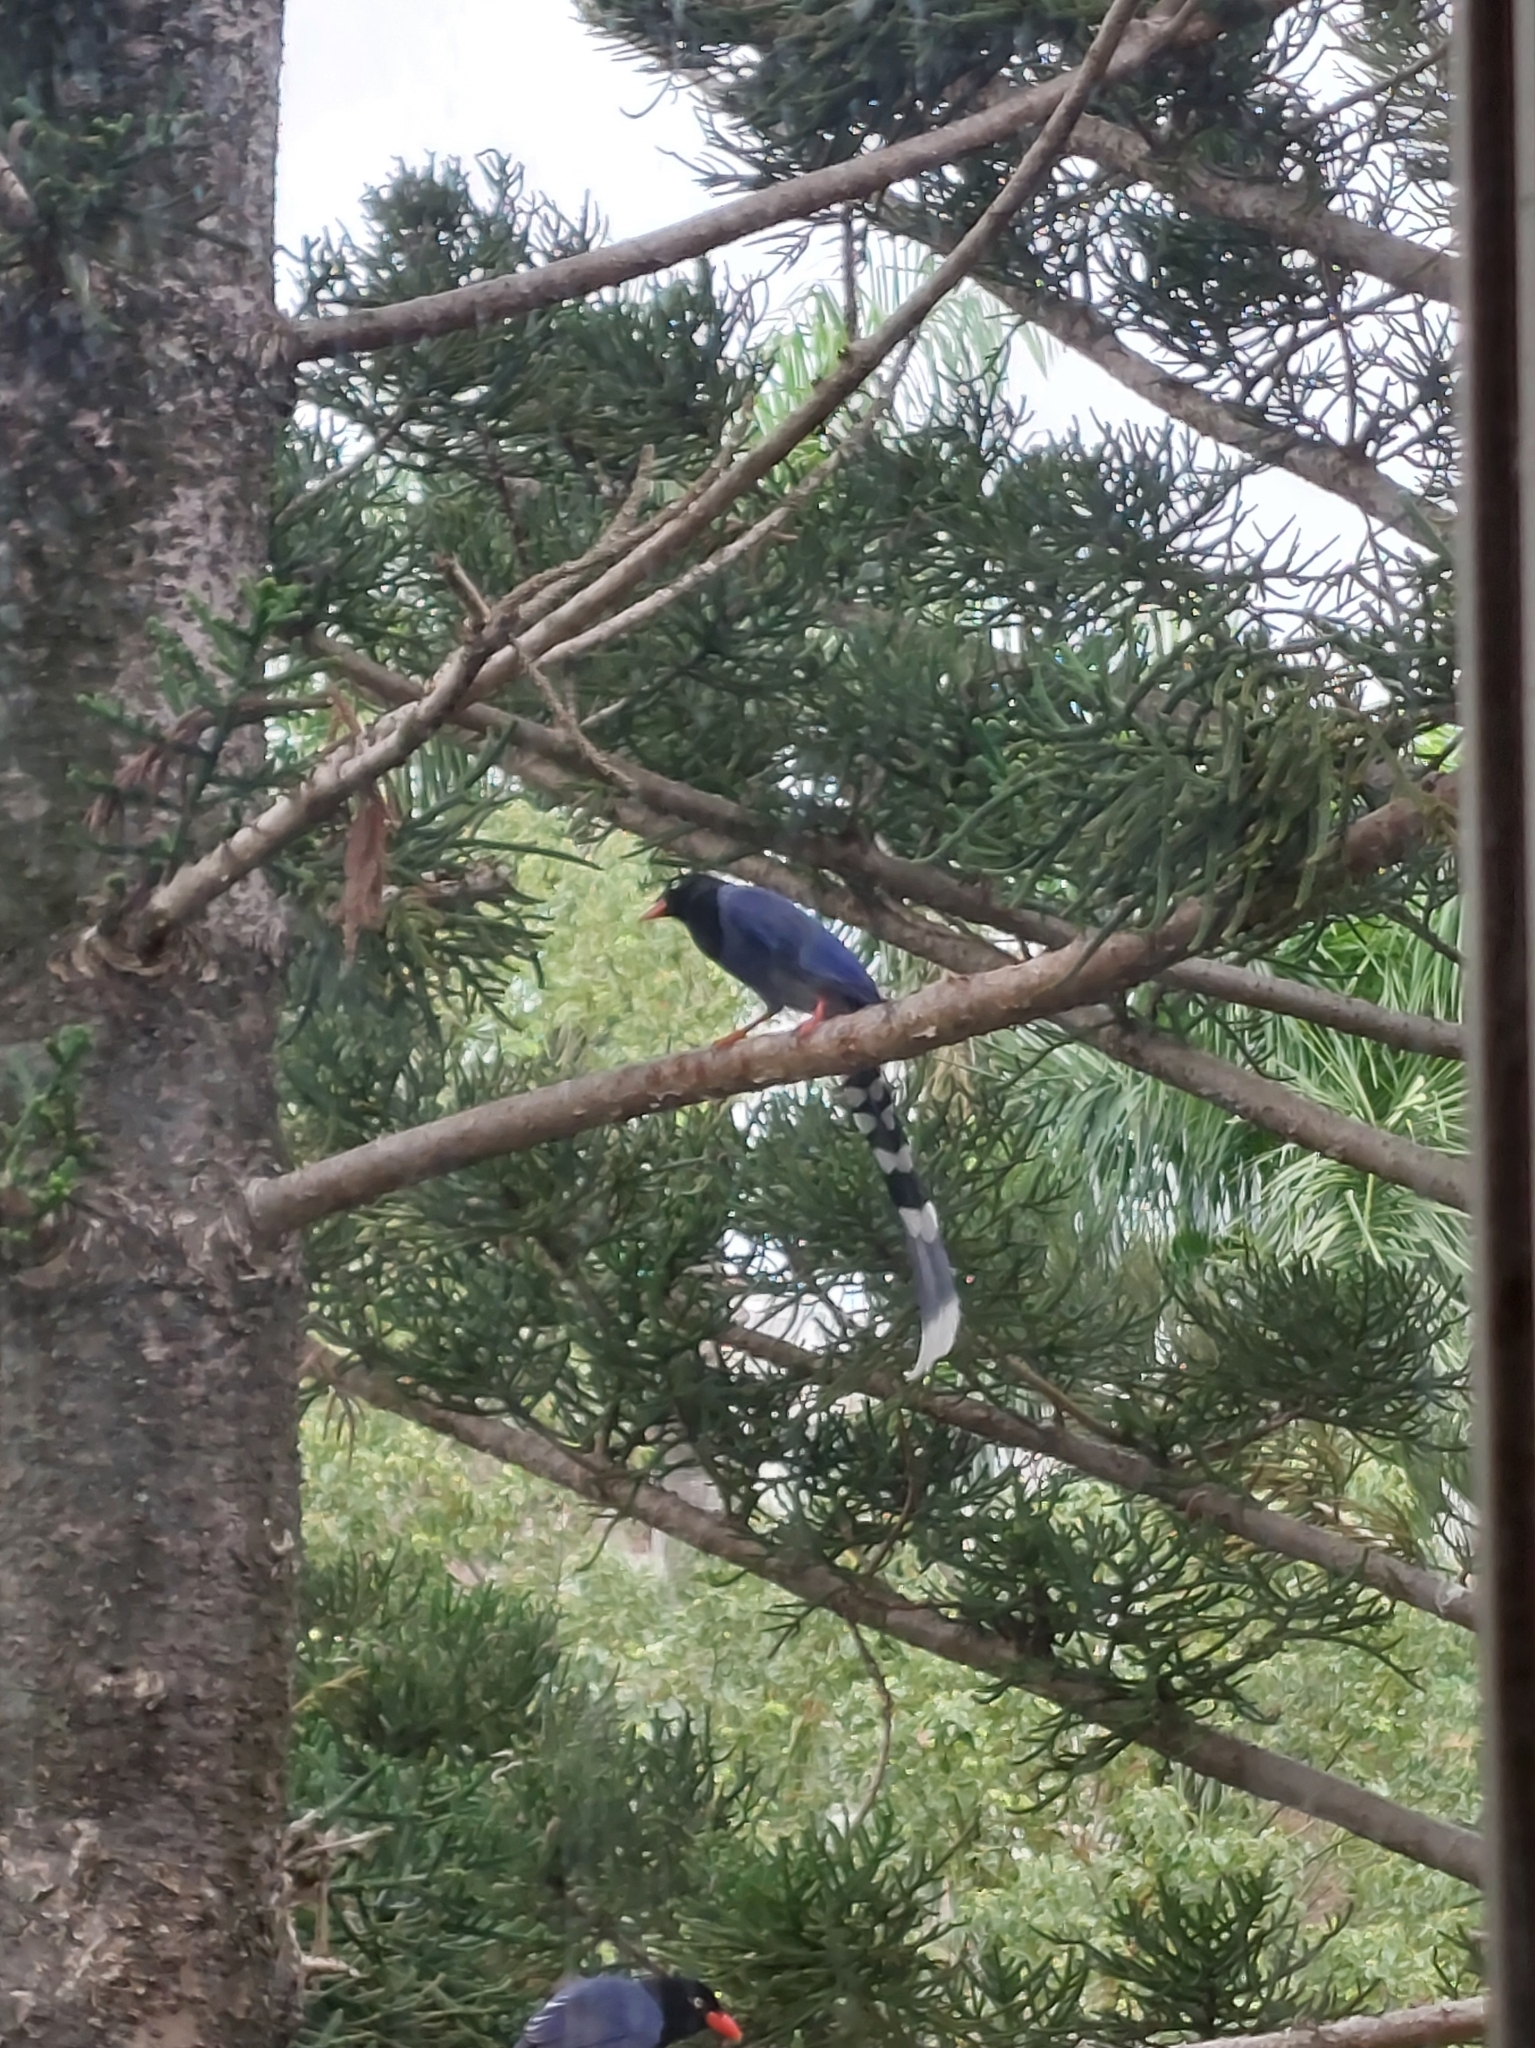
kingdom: Animalia
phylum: Chordata
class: Aves
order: Passeriformes
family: Corvidae
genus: Urocissa
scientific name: Urocissa caerulea
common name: Taiwan blue magpie
